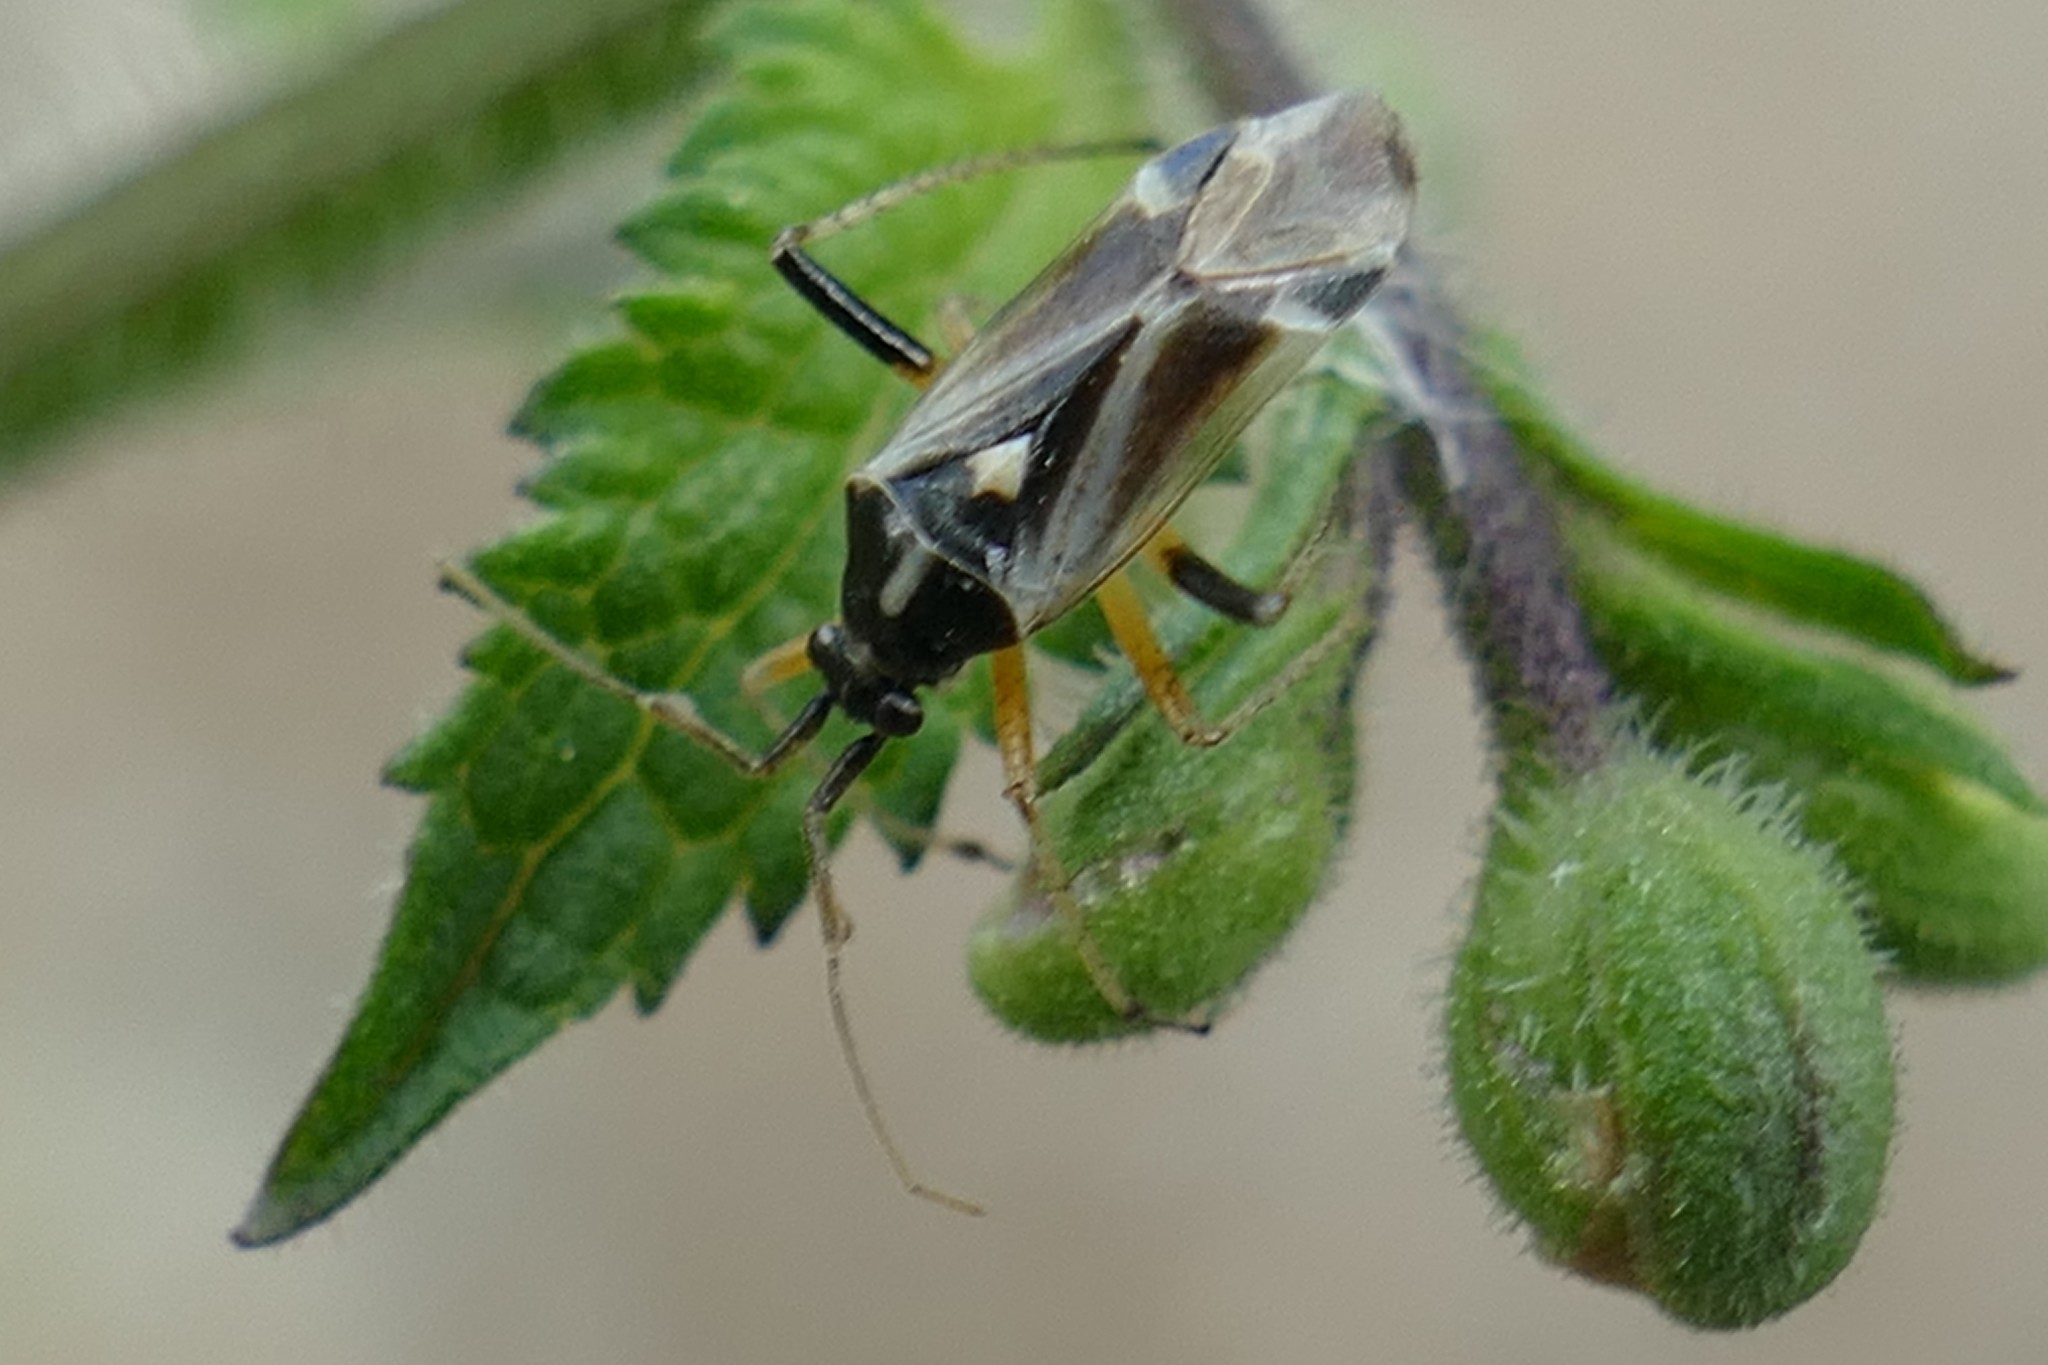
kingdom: Animalia
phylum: Arthropoda
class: Insecta
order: Hemiptera
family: Miridae
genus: Harpocera
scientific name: Harpocera thoracica
